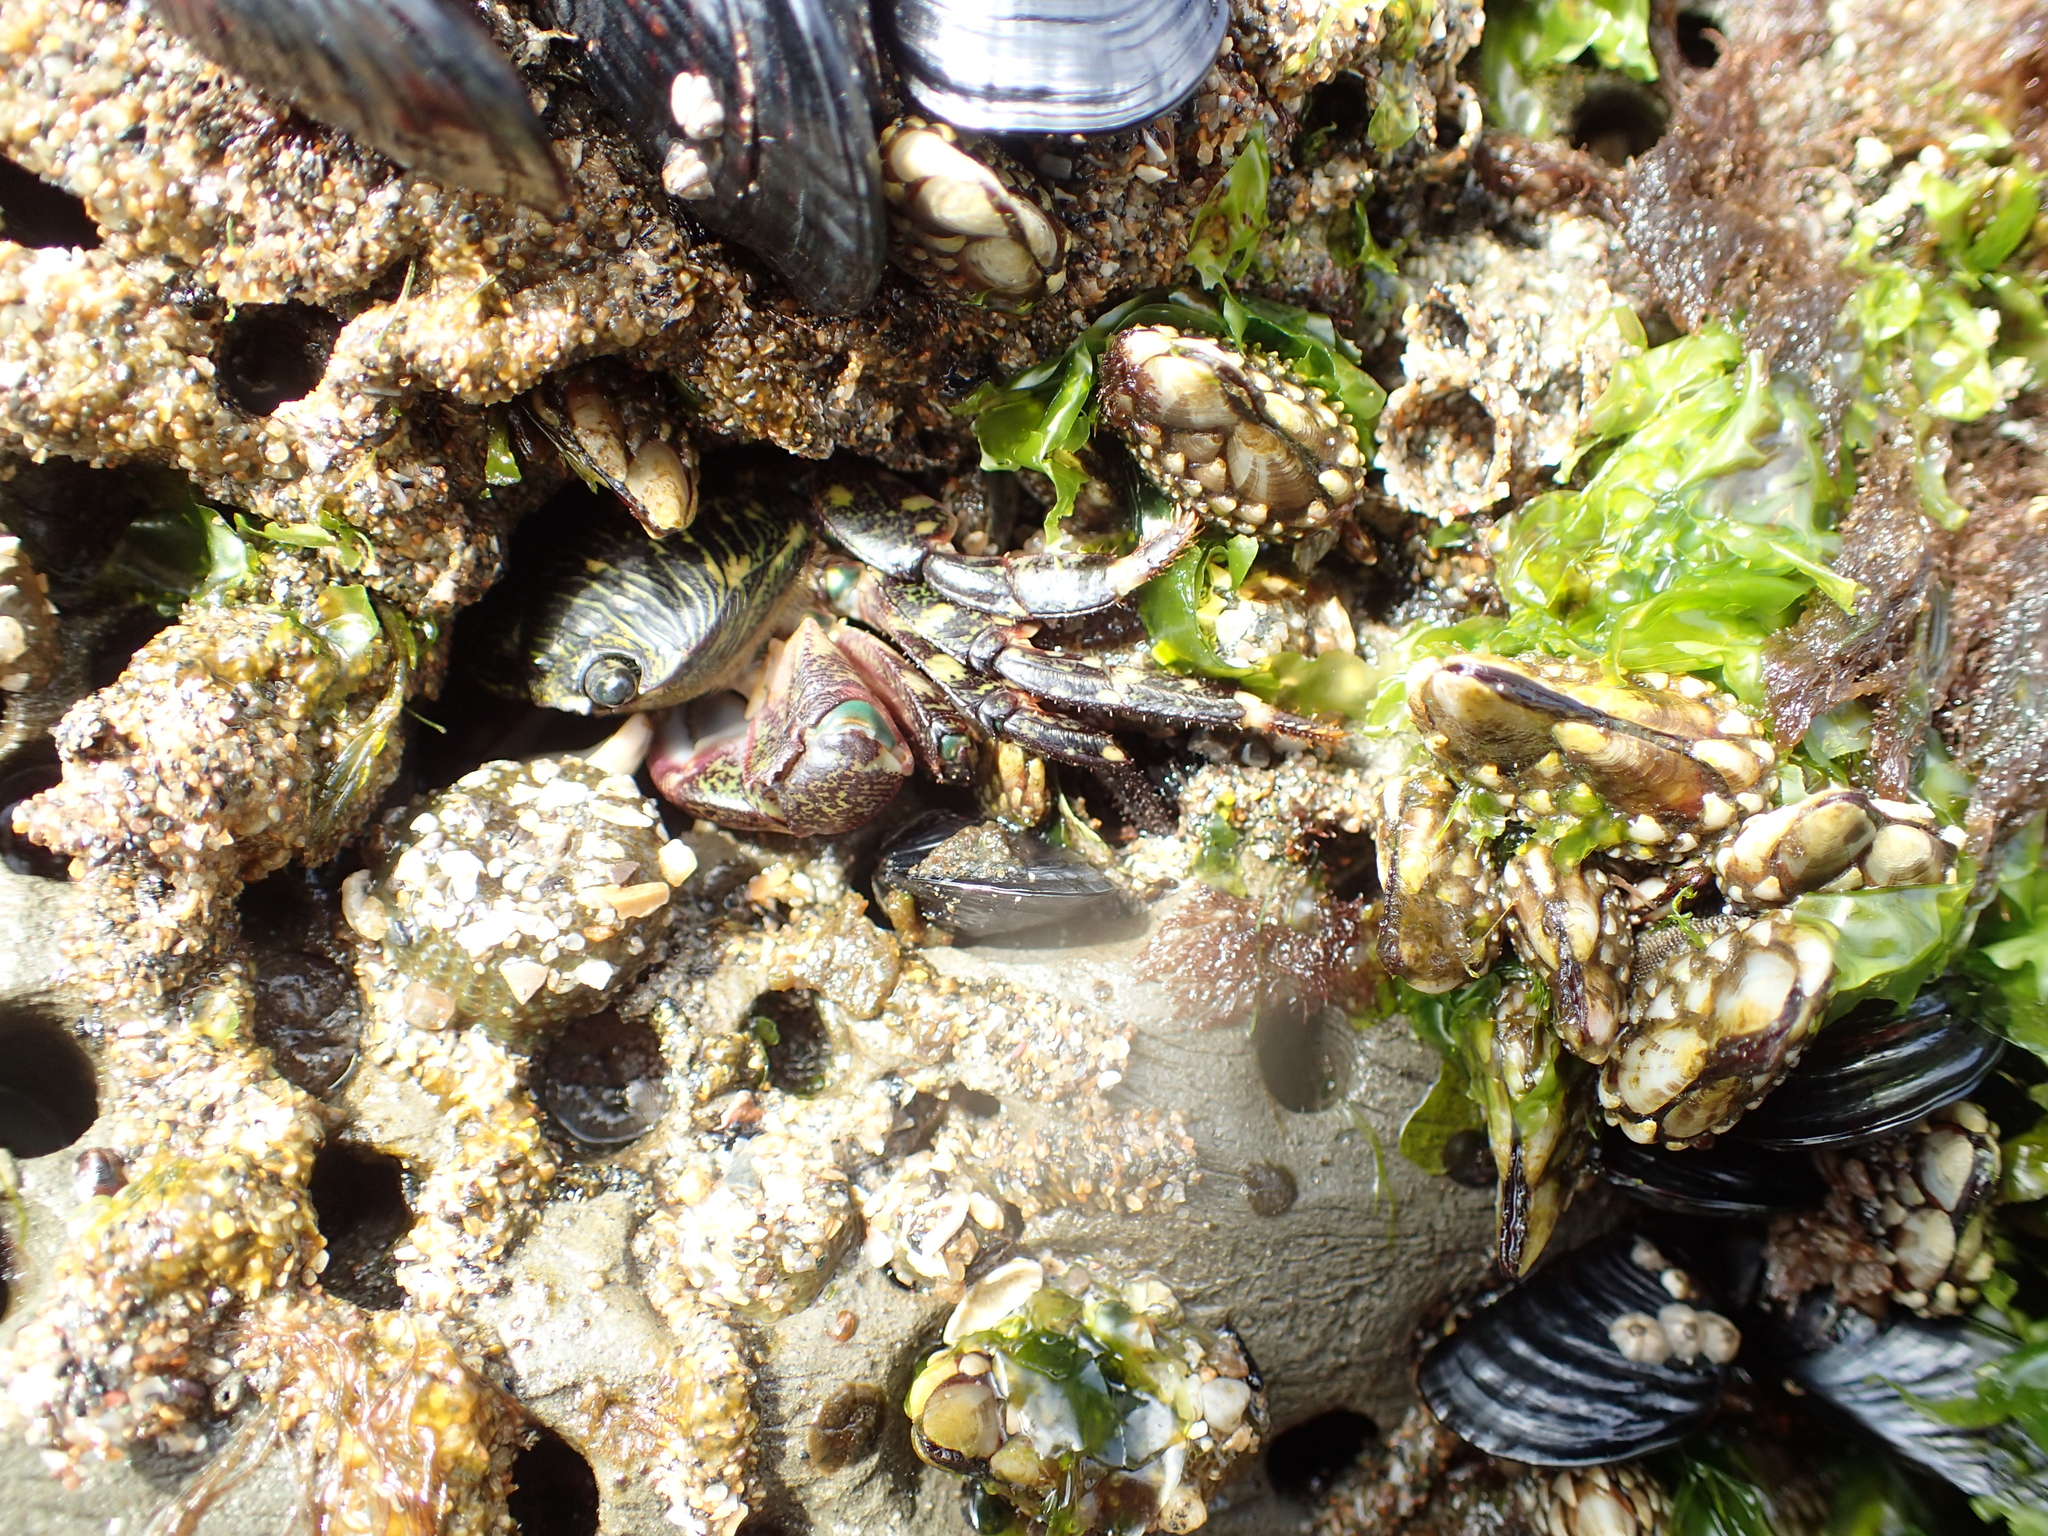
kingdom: Animalia
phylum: Arthropoda
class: Malacostraca
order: Decapoda
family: Grapsidae
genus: Pachygrapsus
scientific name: Pachygrapsus crassipes
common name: Striped shore crab
